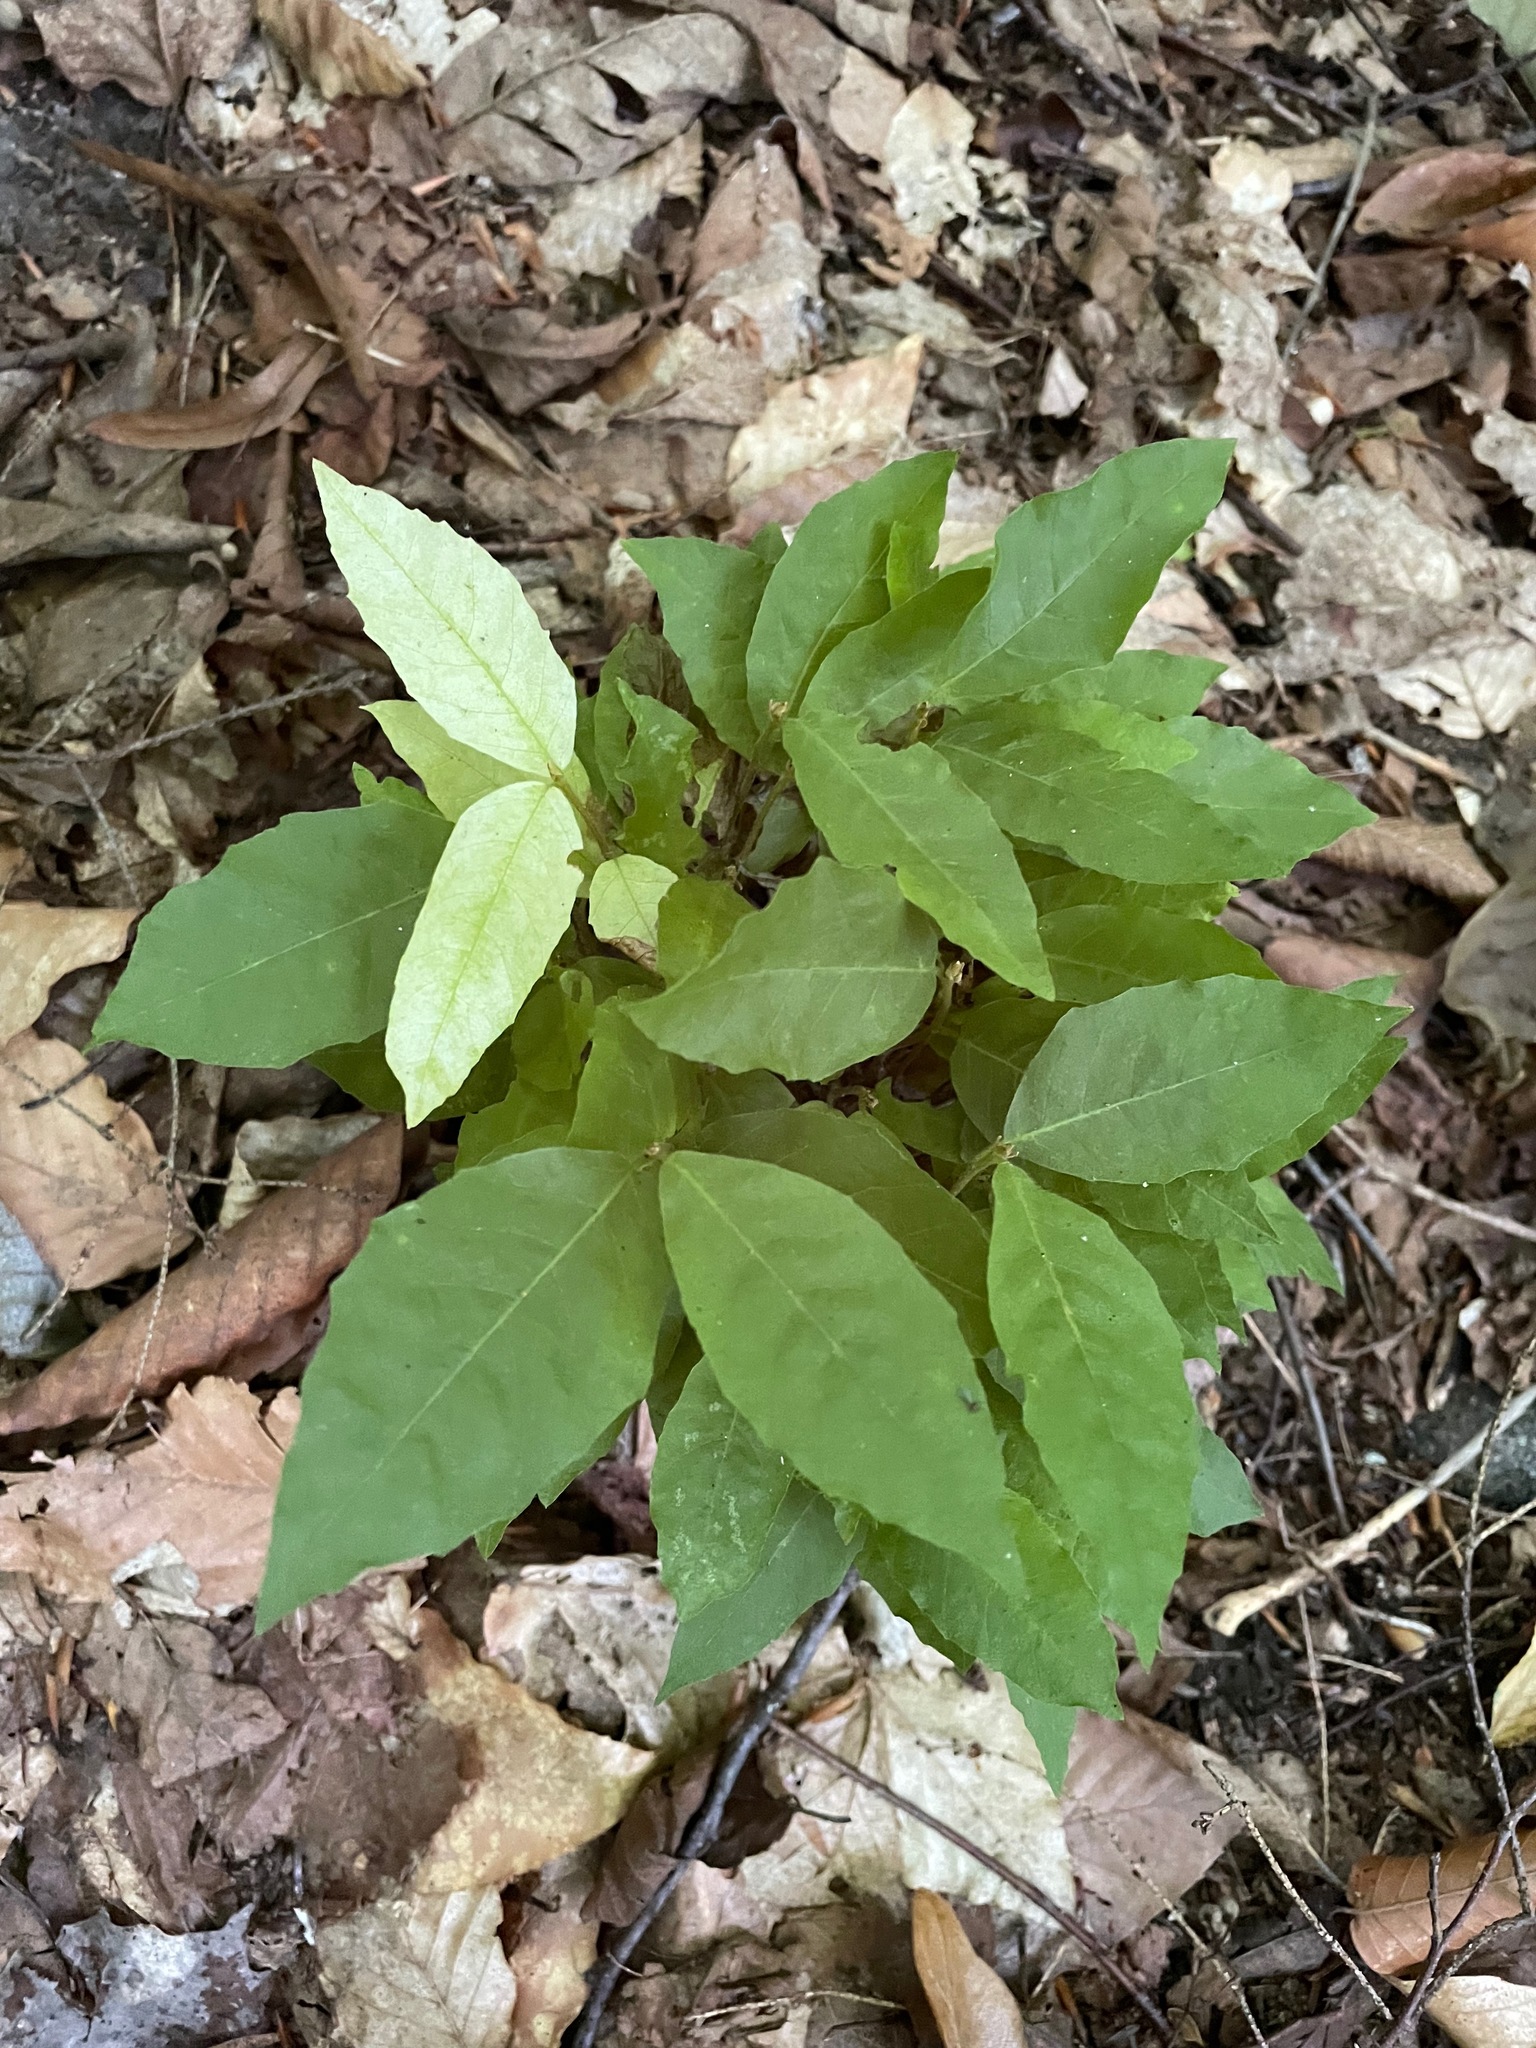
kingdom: Plantae
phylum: Tracheophyta
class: Magnoliopsida
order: Fagales
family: Fagaceae
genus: Fagus
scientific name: Fagus grandifolia
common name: American beech
